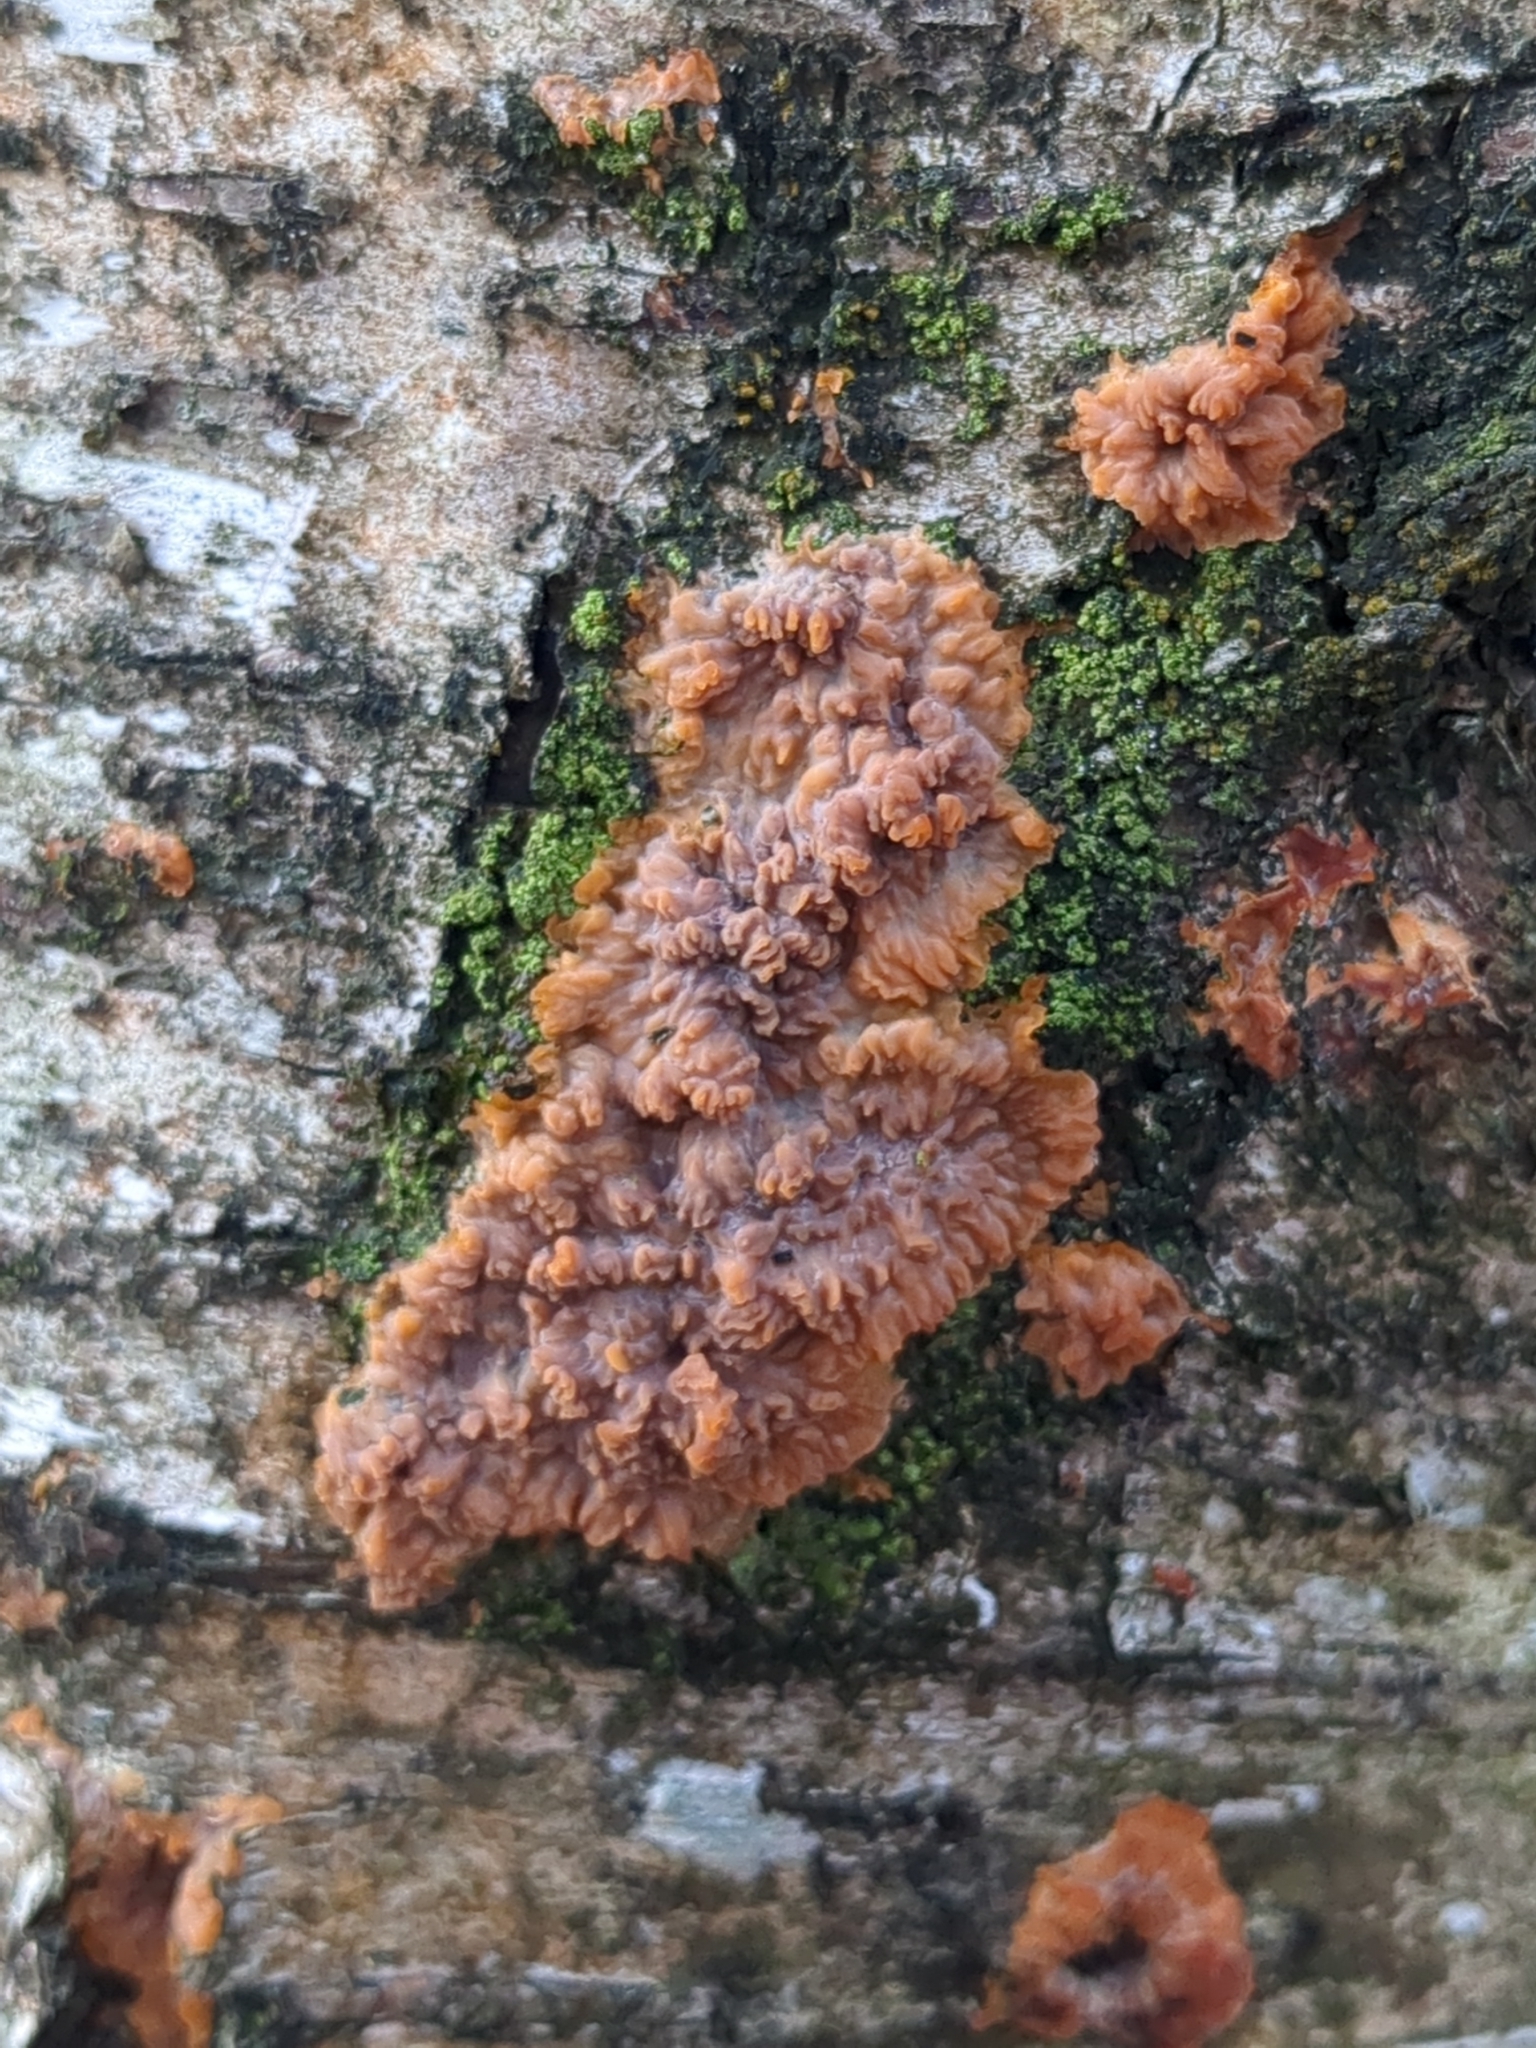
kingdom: Fungi
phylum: Basidiomycota
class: Agaricomycetes
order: Polyporales
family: Meruliaceae
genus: Phlebia
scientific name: Phlebia radiata
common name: Wrinkled crust
